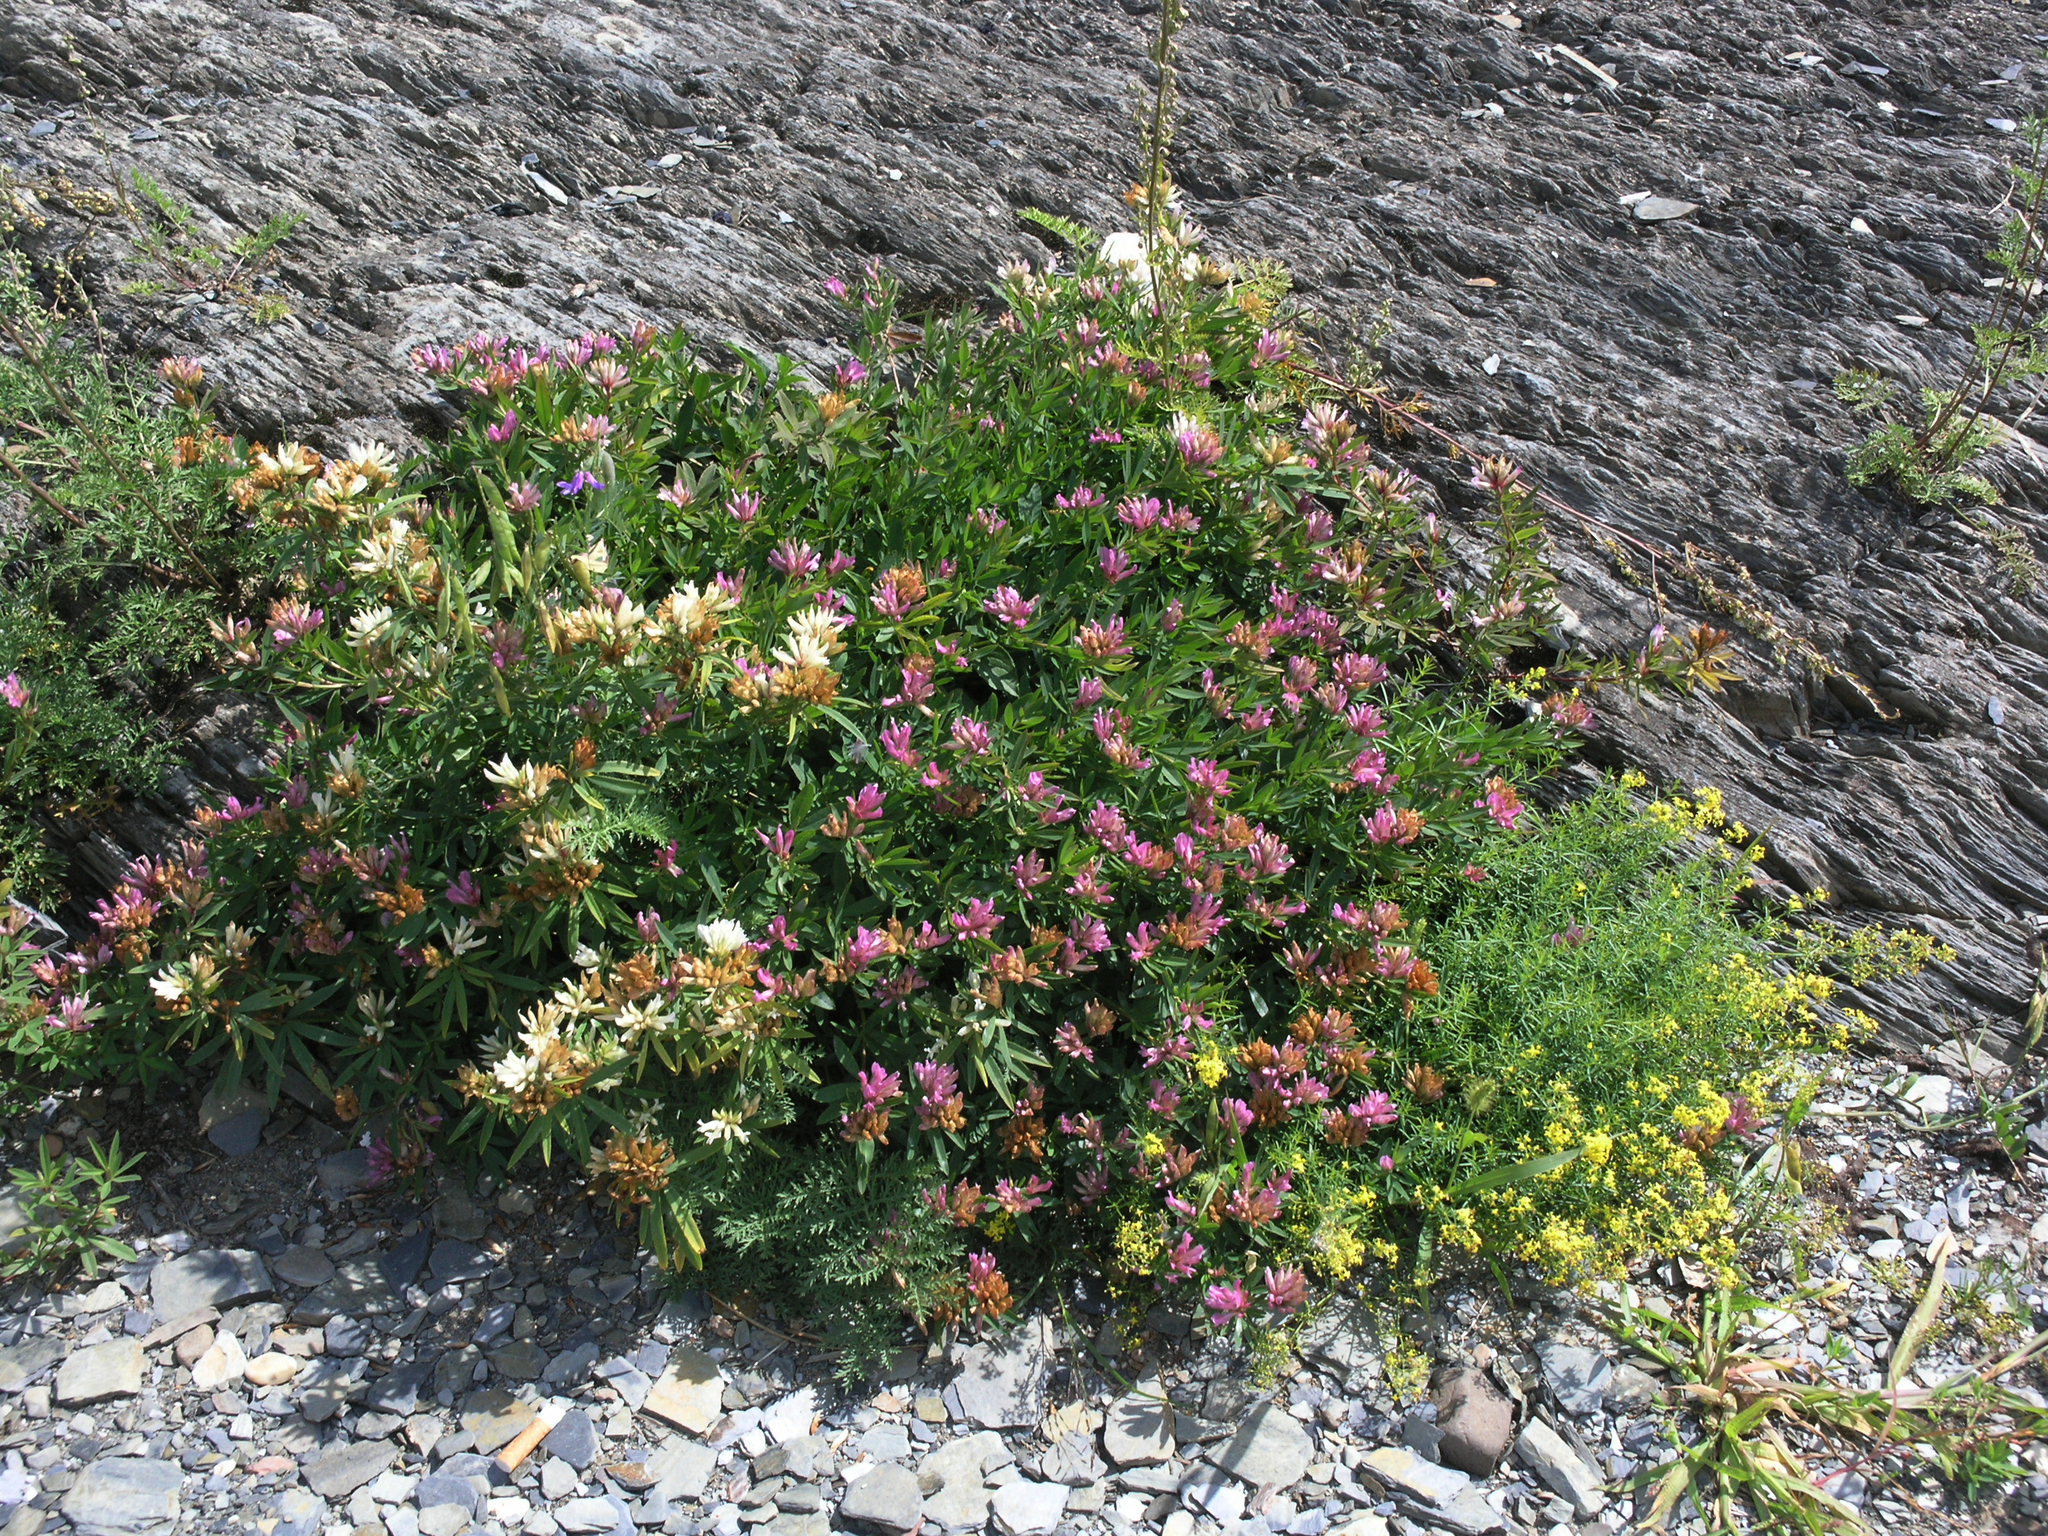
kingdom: Plantae
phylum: Tracheophyta
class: Magnoliopsida
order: Fabales
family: Fabaceae
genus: Trifolium
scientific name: Trifolium lupinaster
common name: Lupine clover
